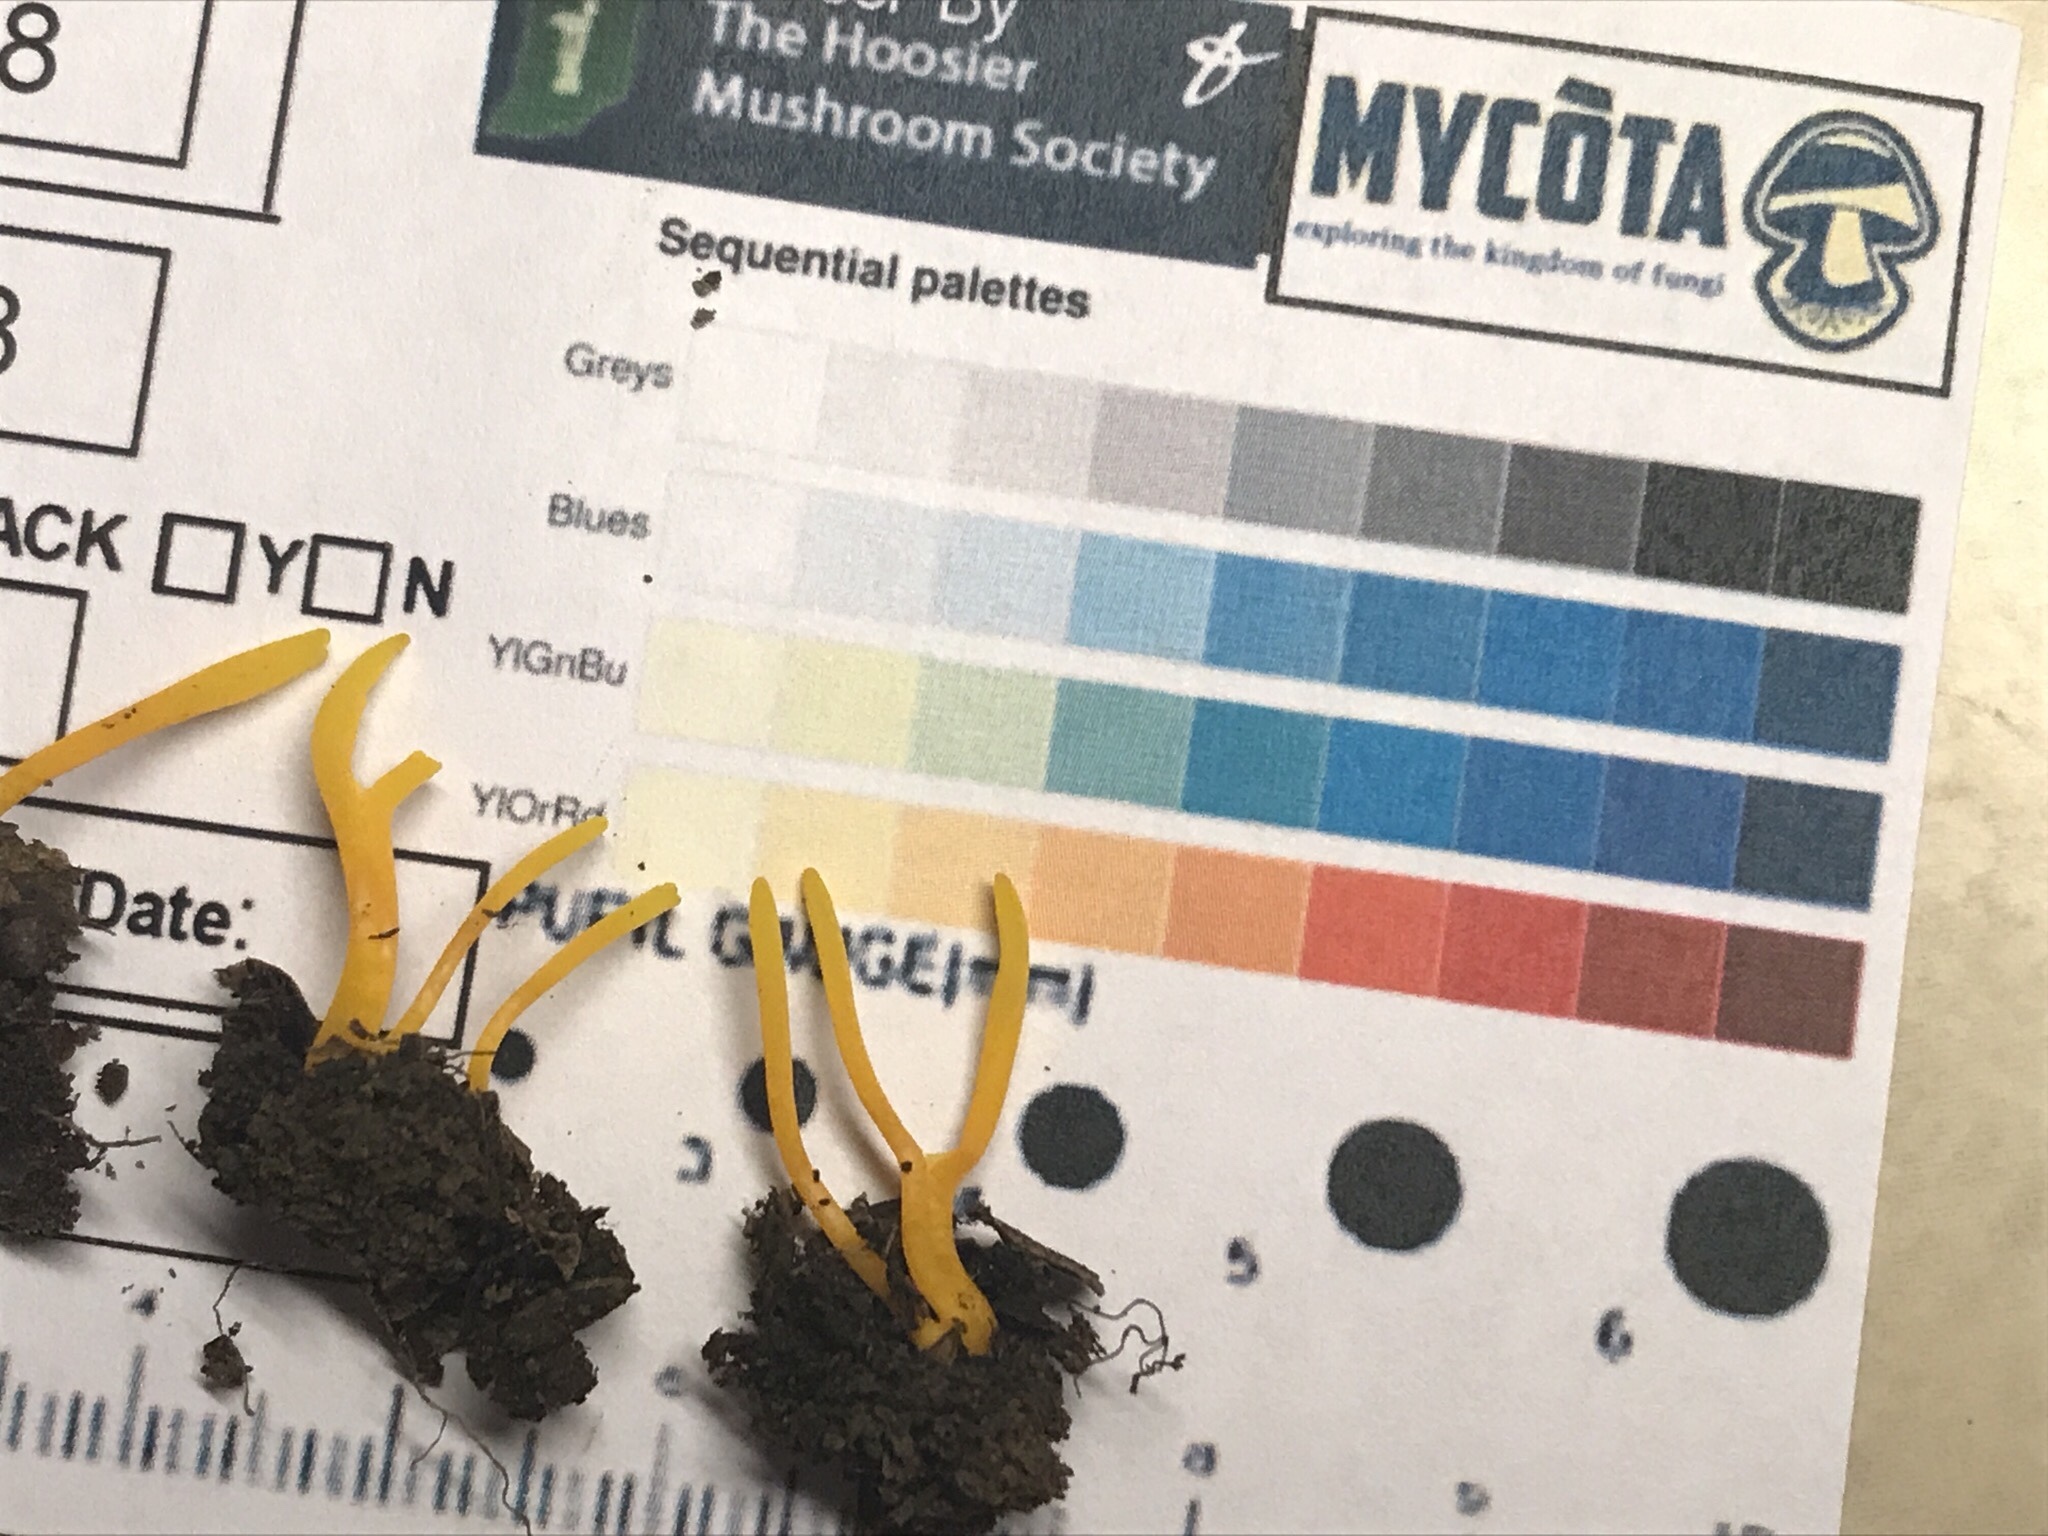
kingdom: Fungi
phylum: Basidiomycota
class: Agaricomycetes
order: Agaricales
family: Clavariaceae
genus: Clavulinopsis
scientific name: Clavulinopsis laeticolor
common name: Handsome club
